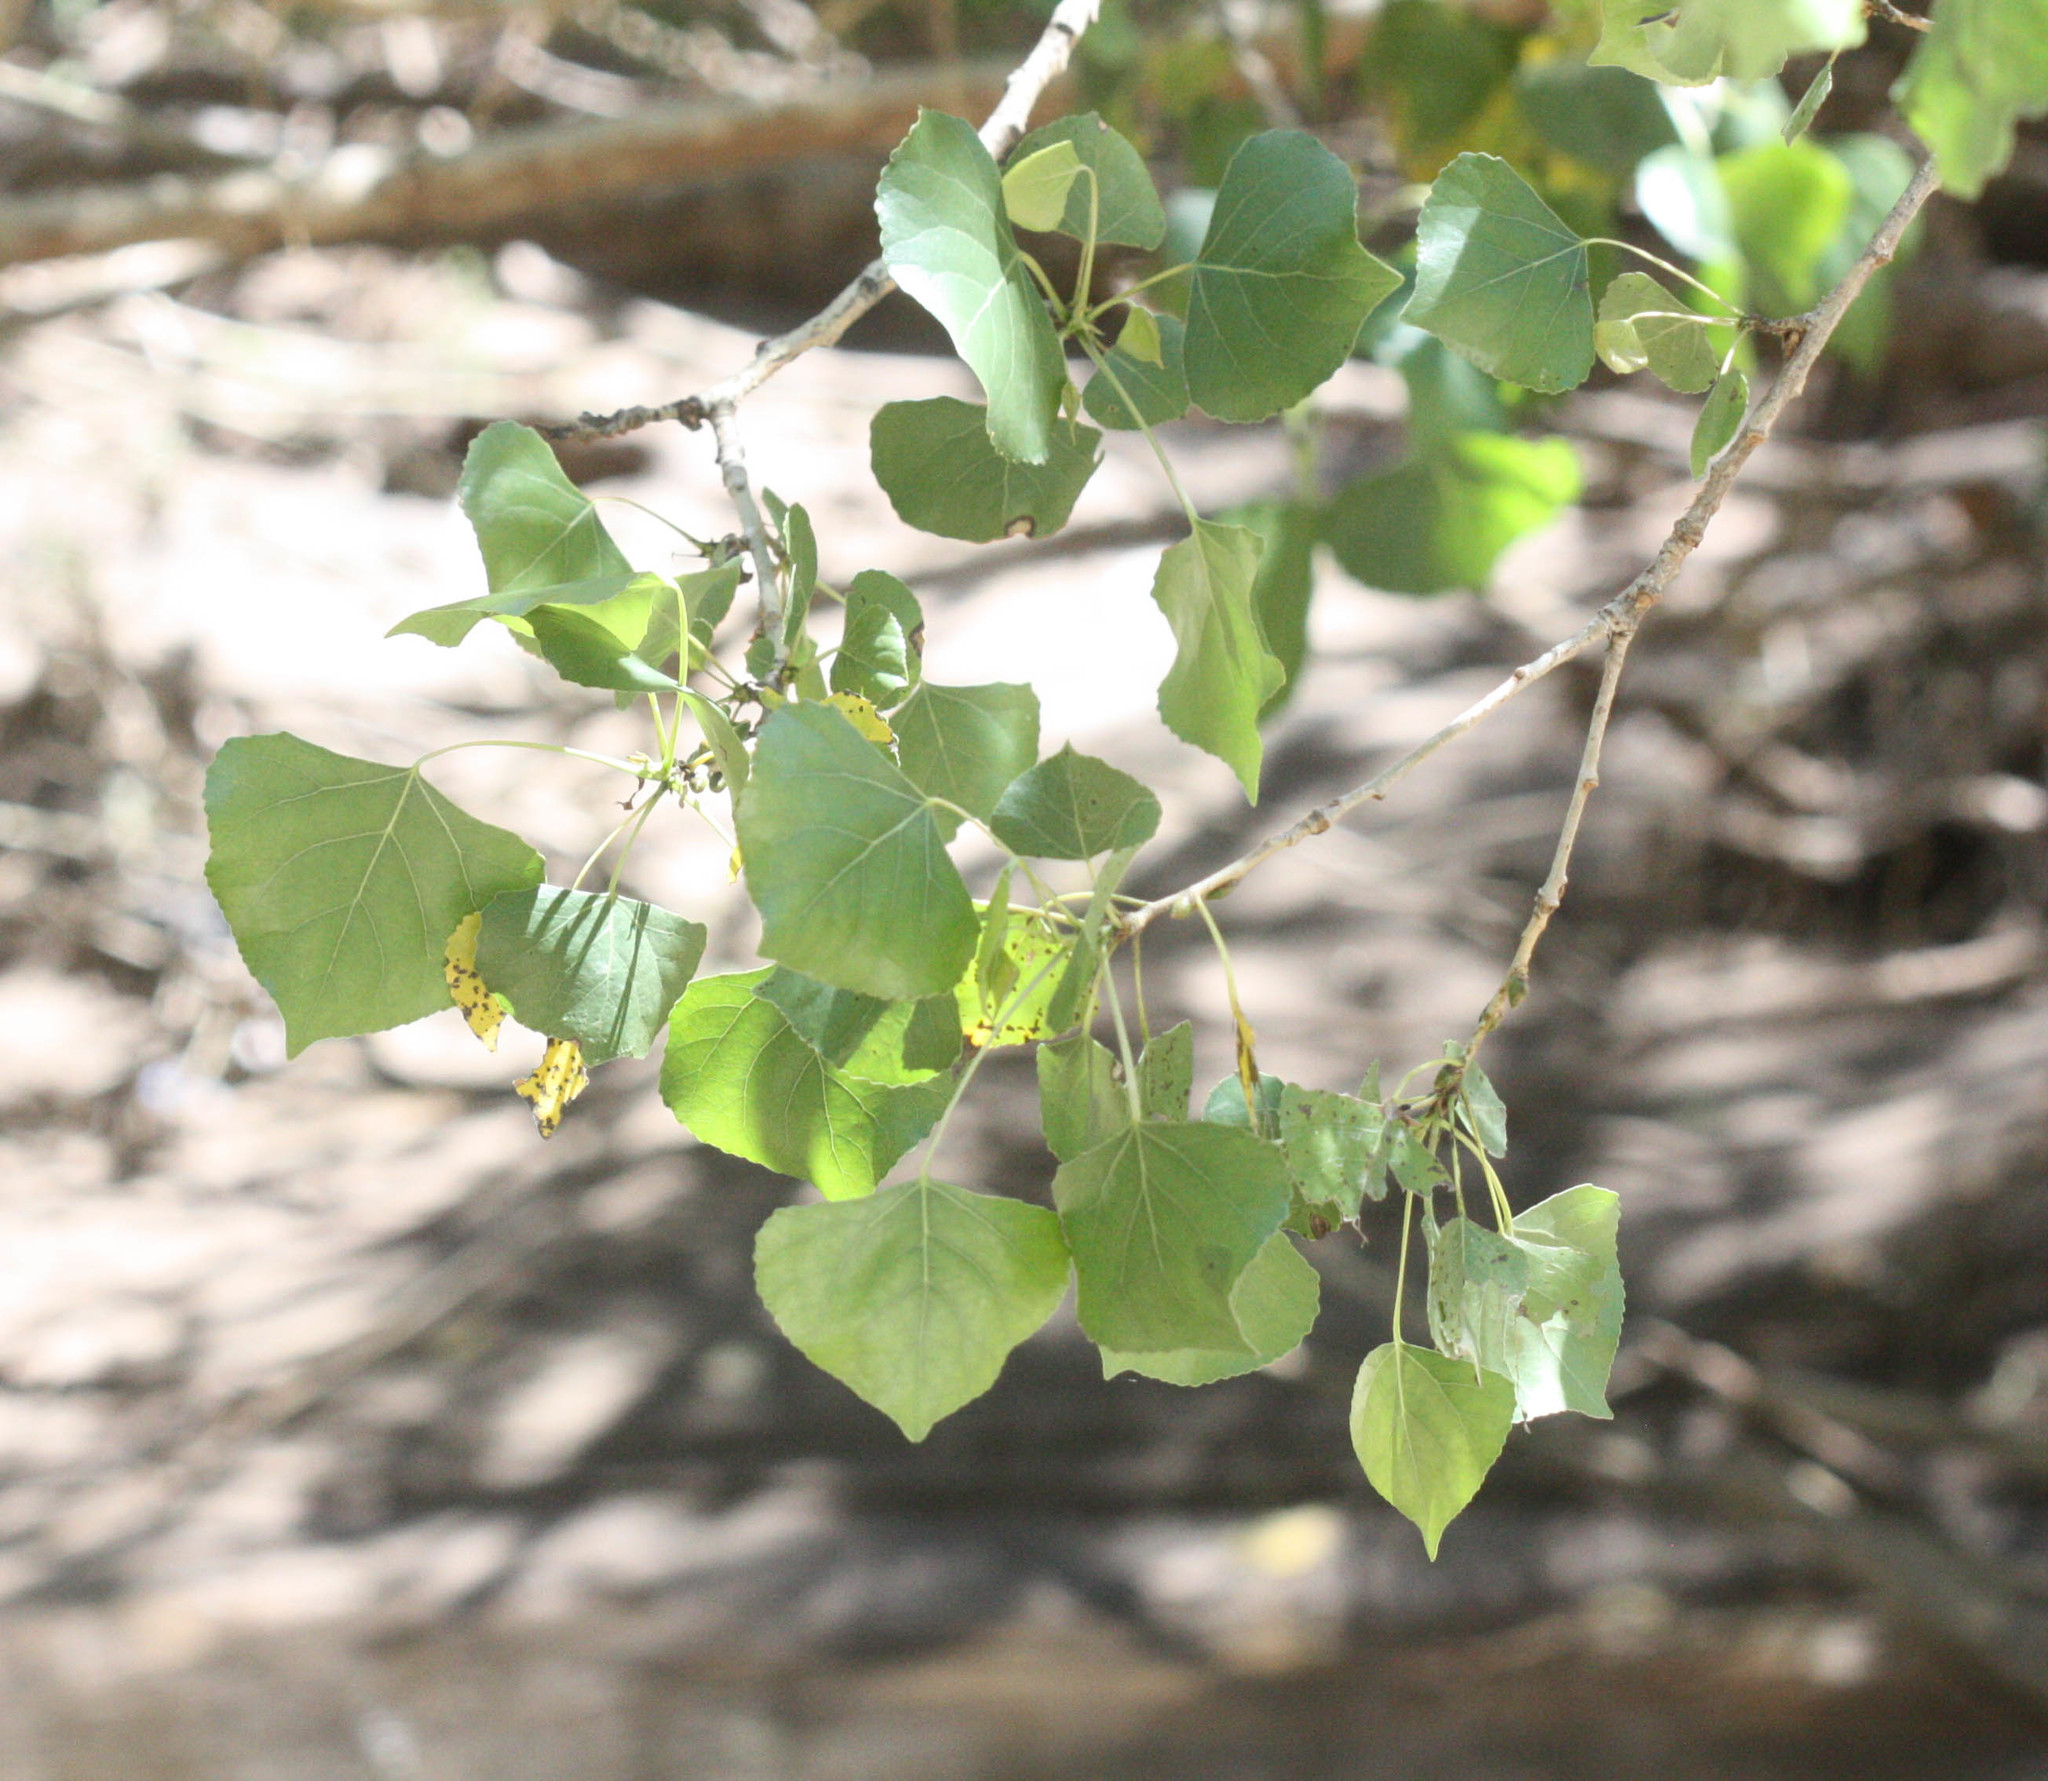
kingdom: Plantae
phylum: Tracheophyta
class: Magnoliopsida
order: Malpighiales
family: Salicaceae
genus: Populus
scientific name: Populus fremontii
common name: Fremont's cottonwood
